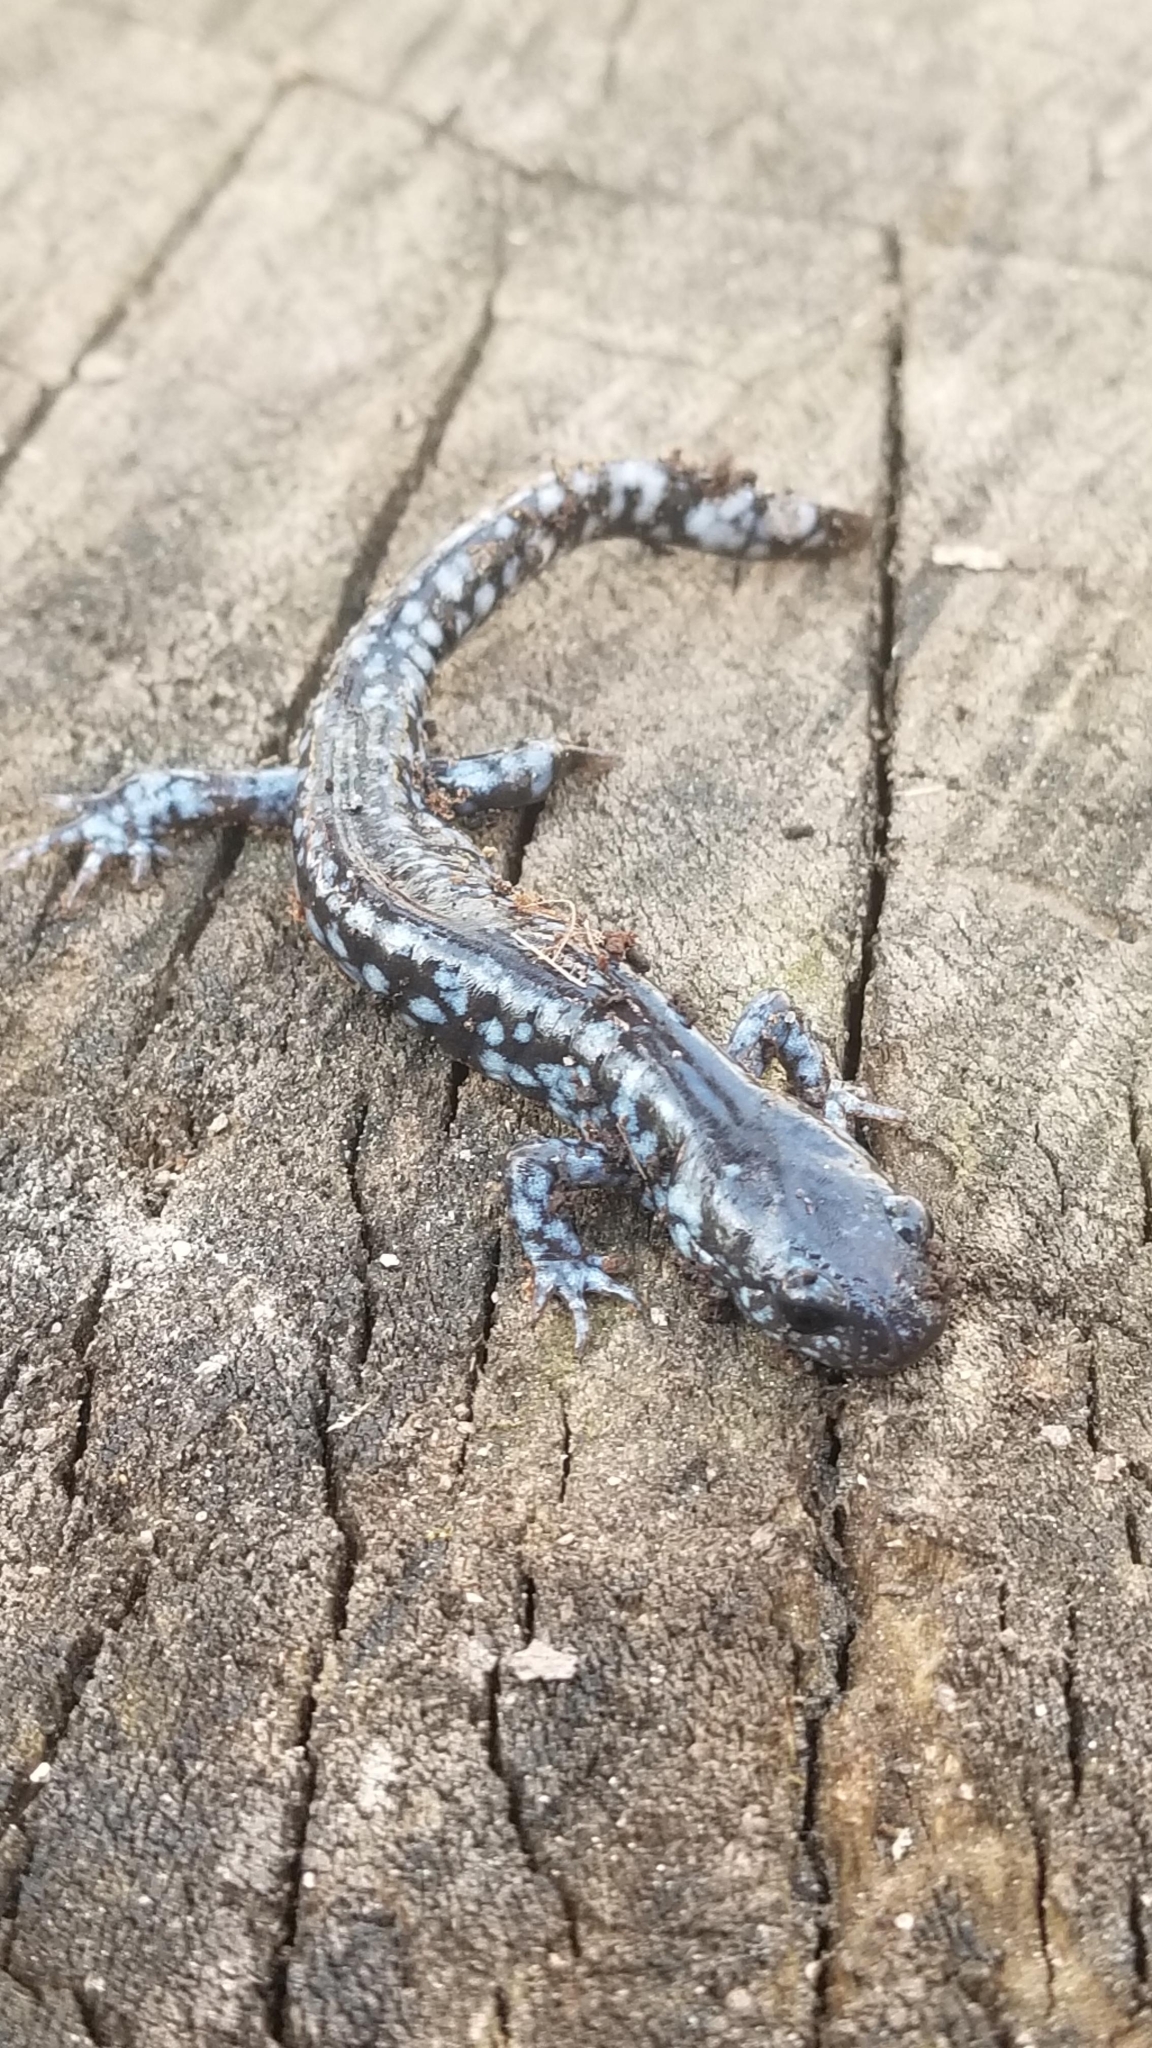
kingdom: Animalia
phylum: Chordata
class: Amphibia
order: Caudata
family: Ambystomatidae
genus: Ambystoma
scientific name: Ambystoma laterale
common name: Blue-spotted salamander
